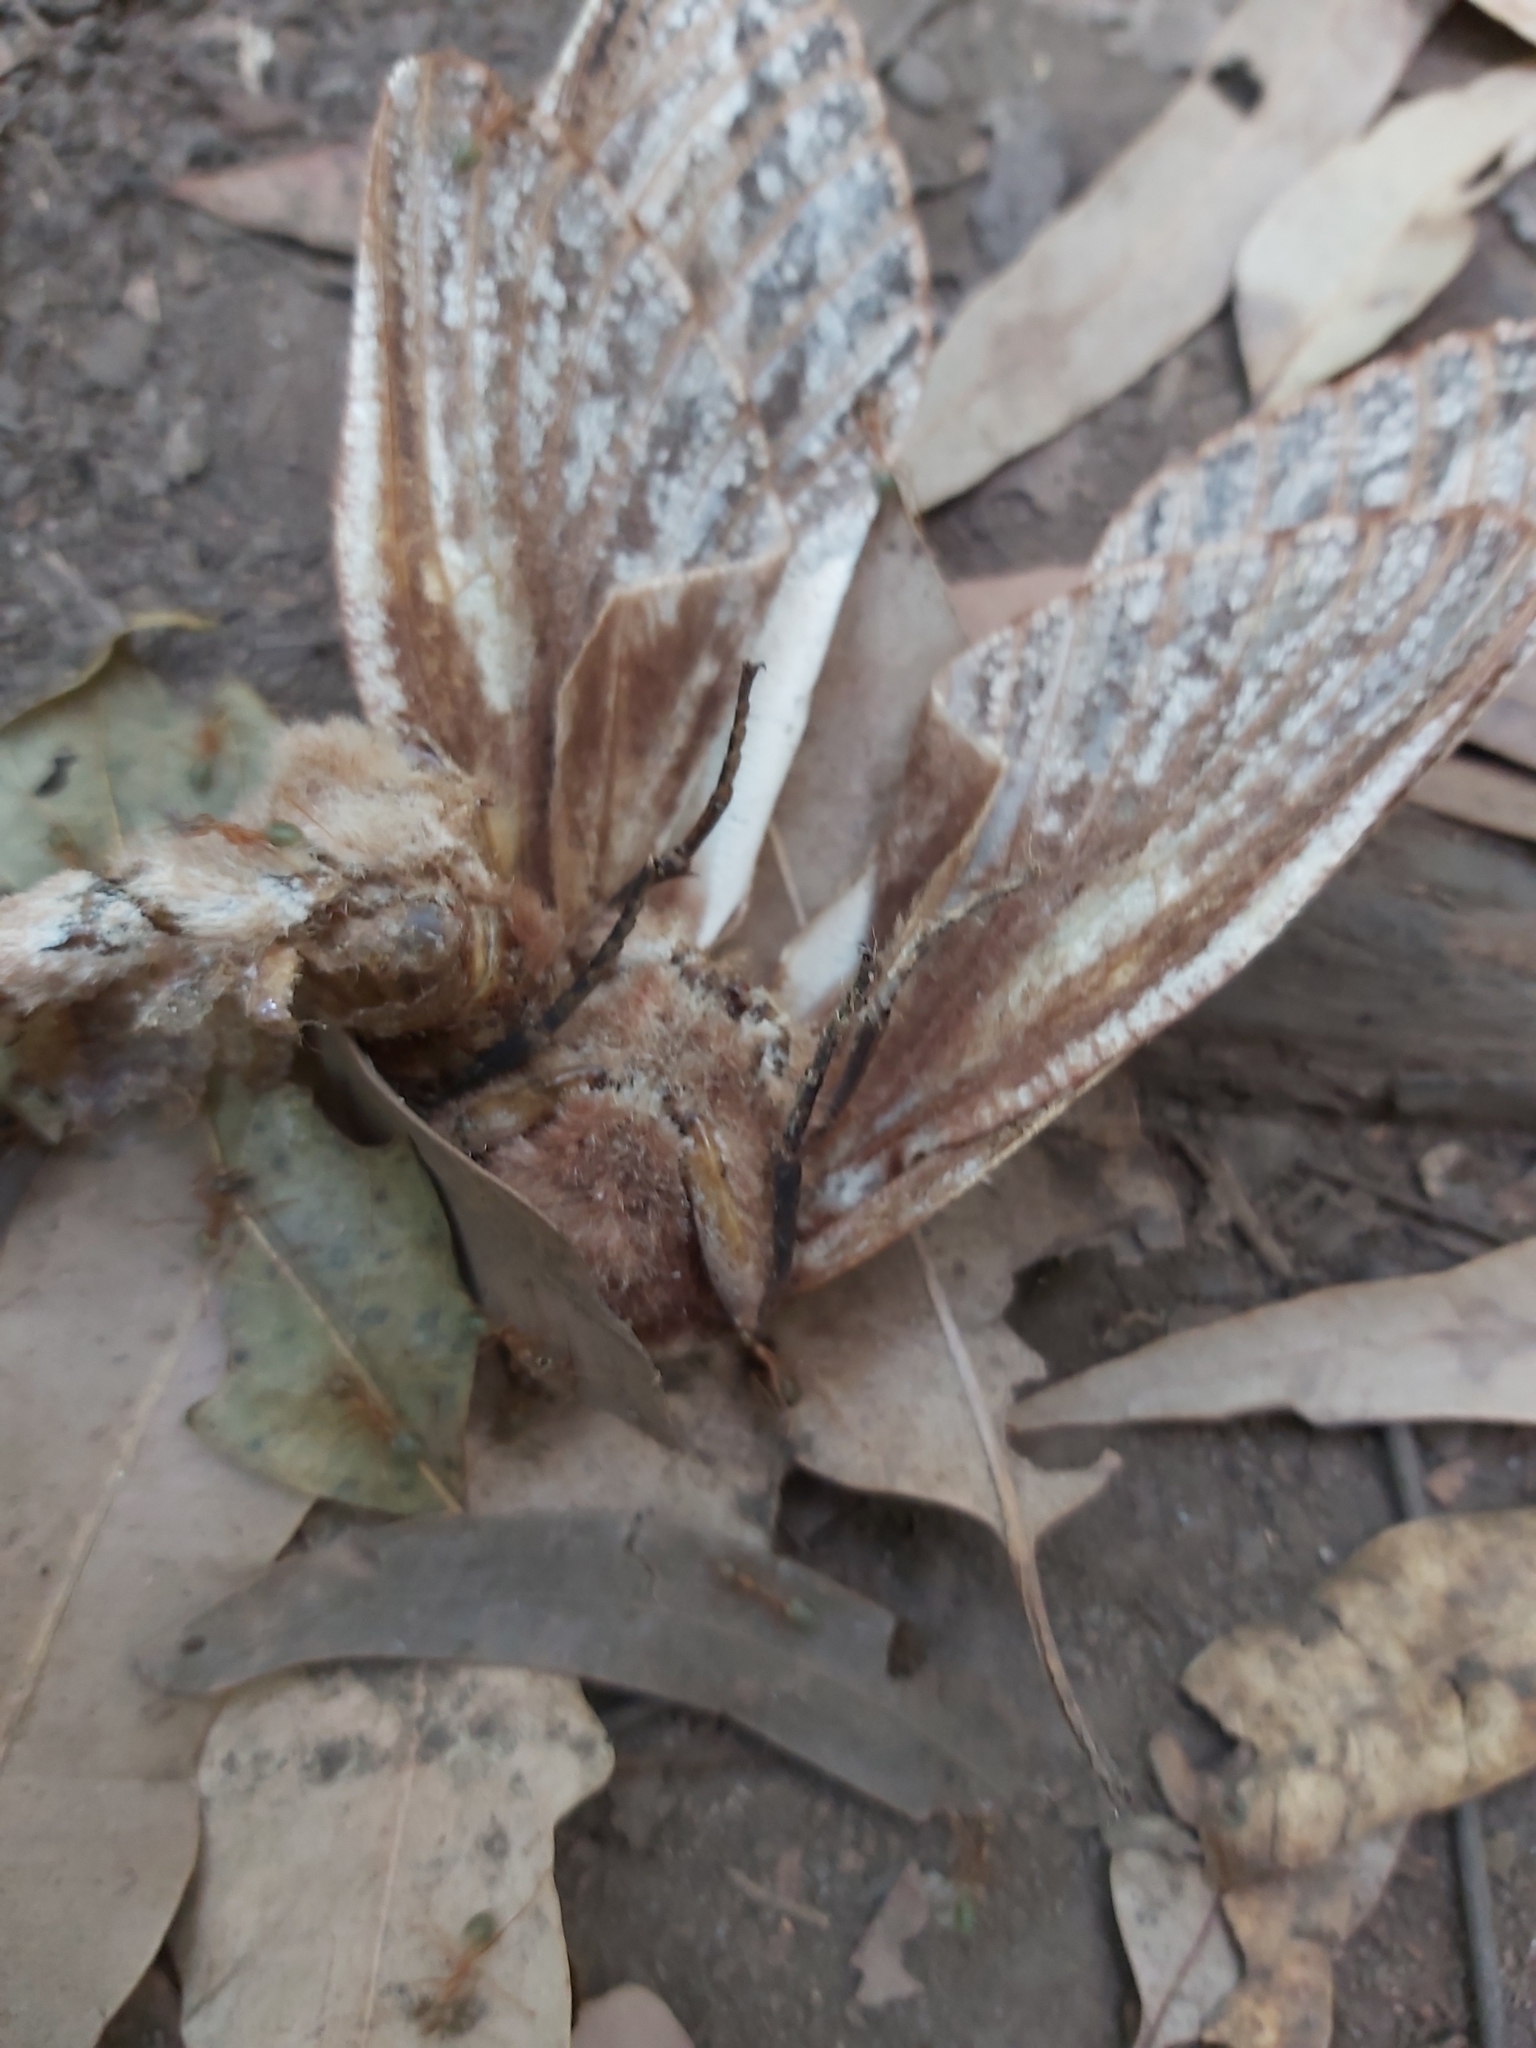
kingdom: Animalia
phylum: Arthropoda
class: Insecta
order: Lepidoptera
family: Cossidae
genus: Endoxyla
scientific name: Endoxyla mackeri
